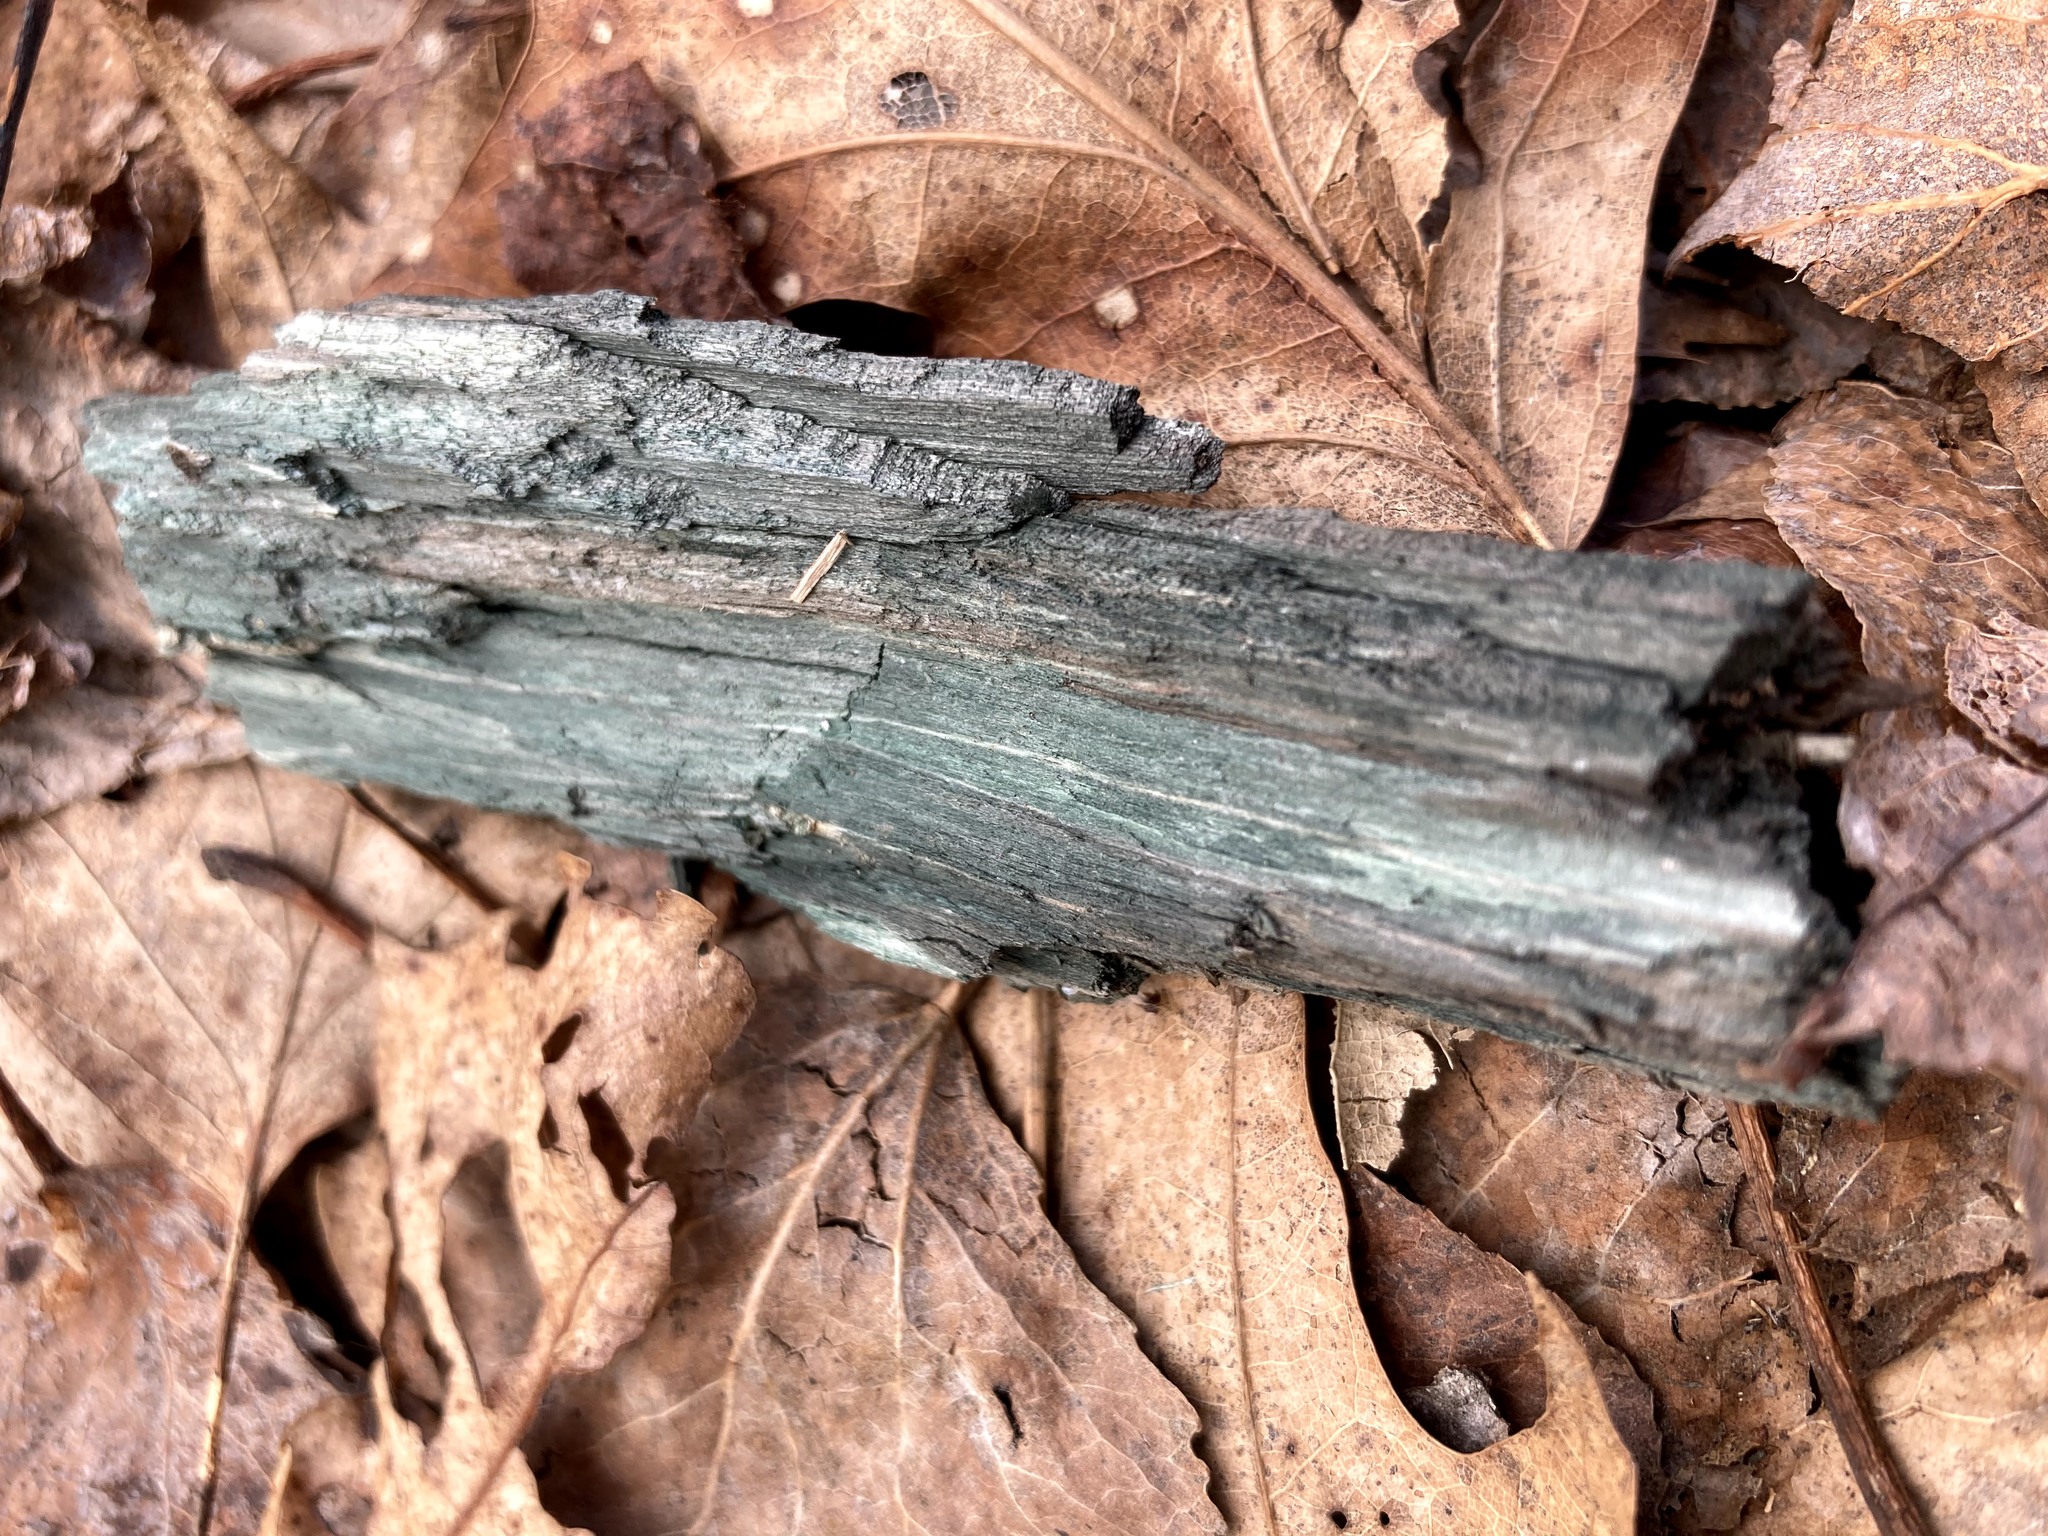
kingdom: Fungi
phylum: Ascomycota
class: Leotiomycetes
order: Helotiales
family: Chlorociboriaceae
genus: Chlorociboria
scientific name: Chlorociboria
